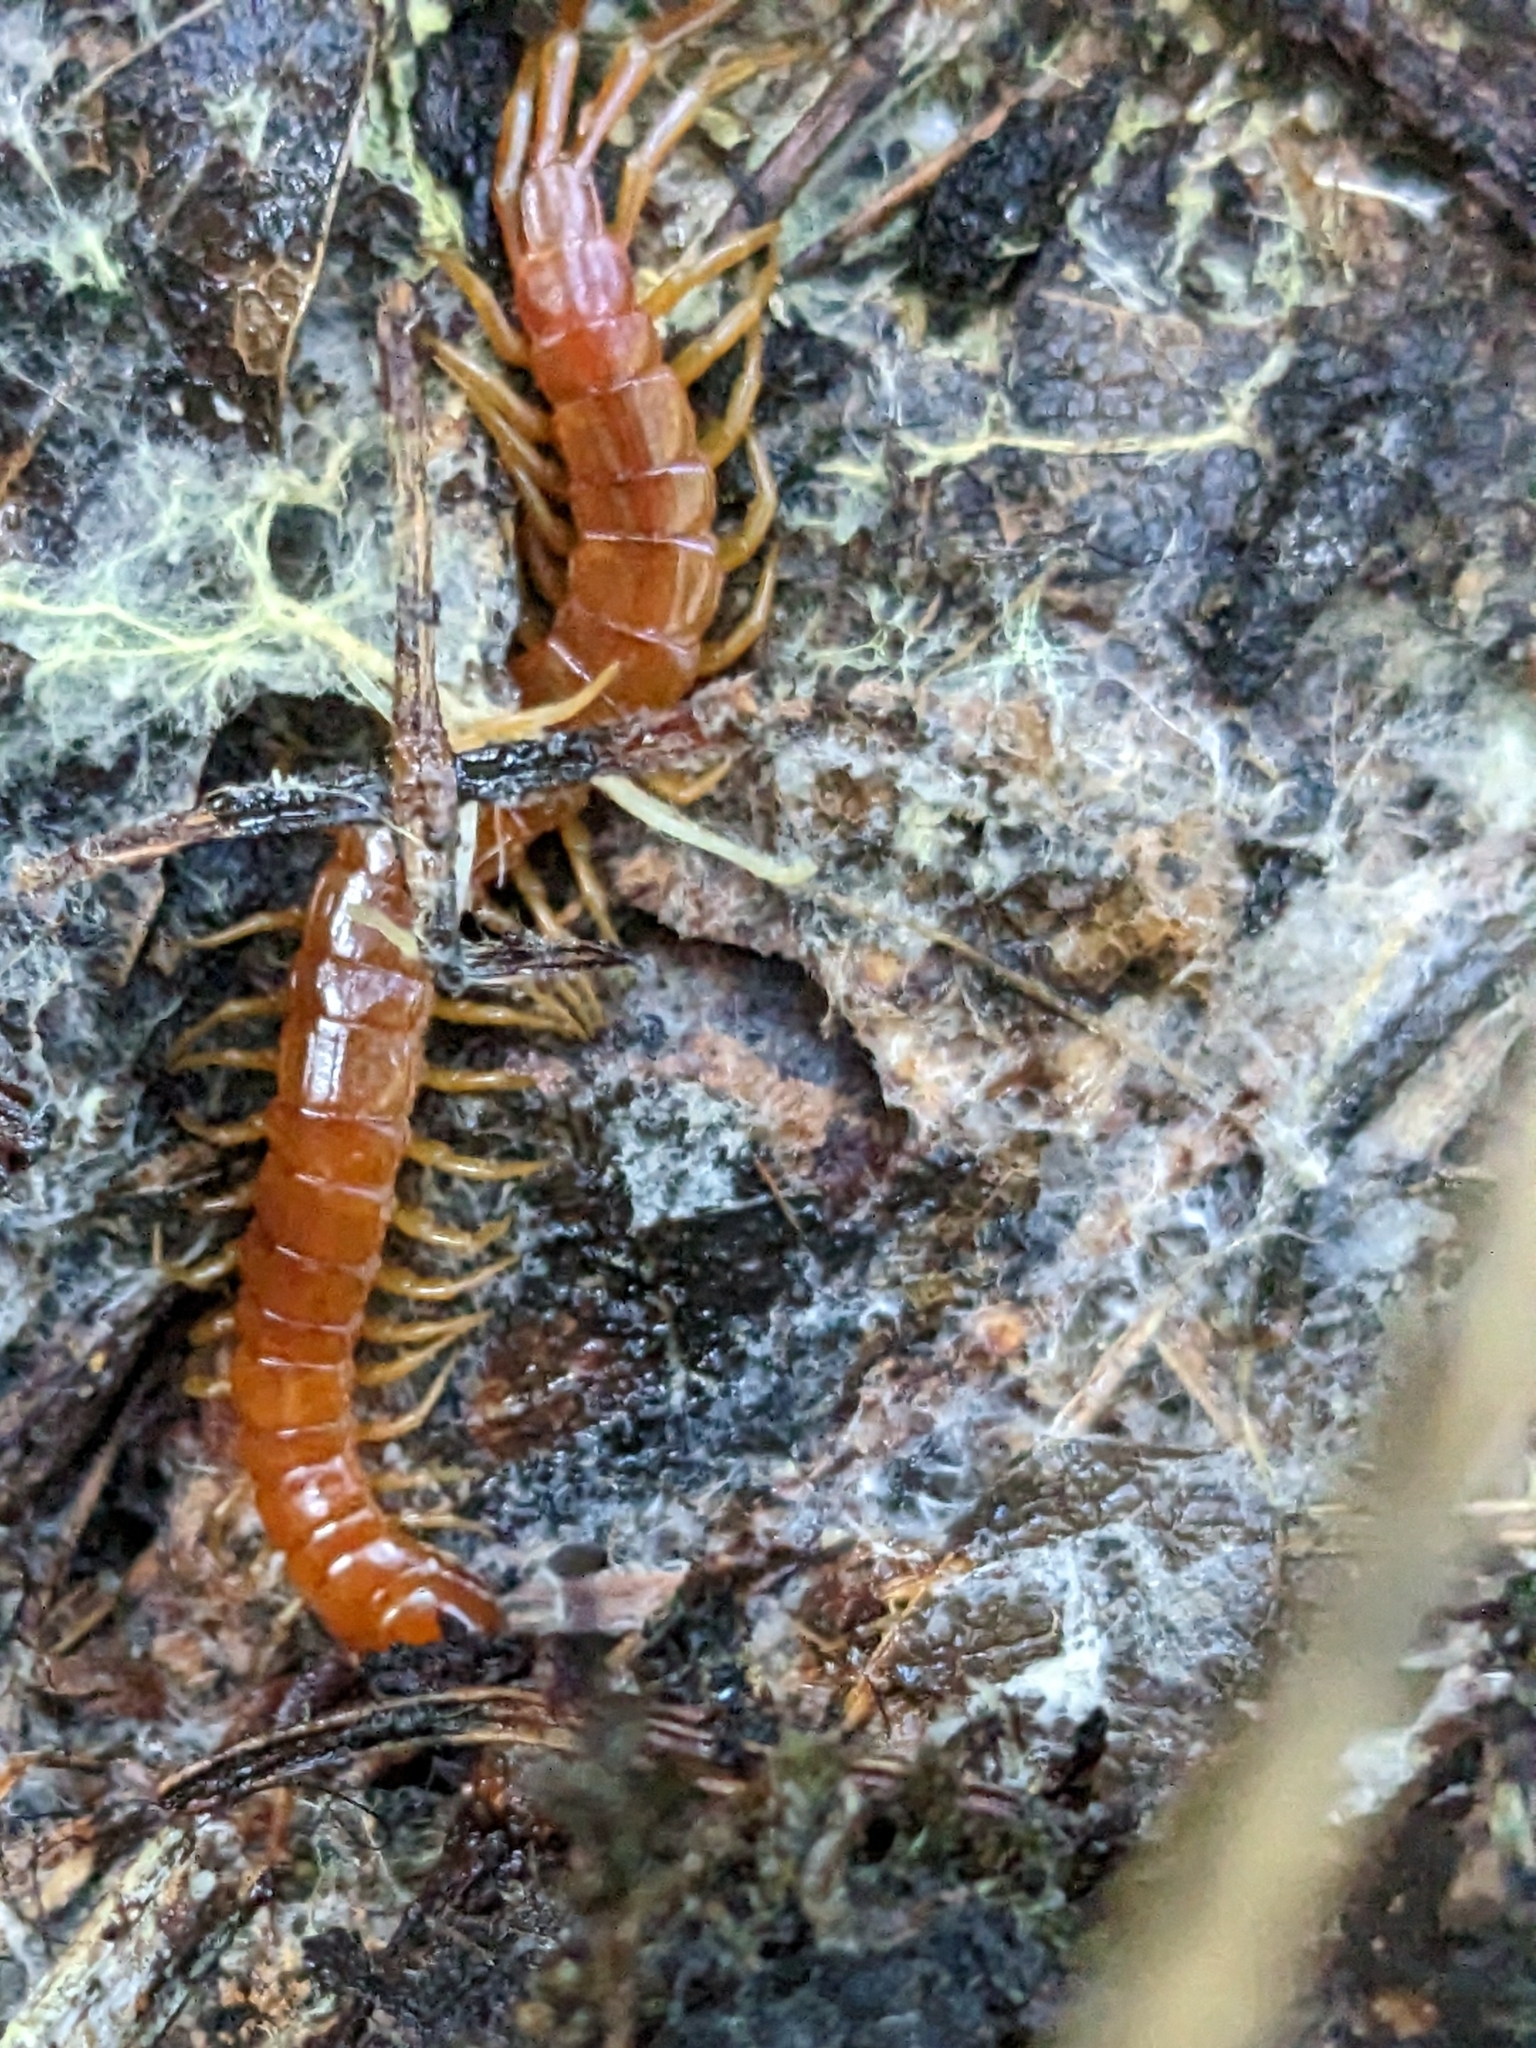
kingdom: Animalia
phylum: Arthropoda
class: Chilopoda
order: Scolopendromorpha
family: Scolopocryptopidae
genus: Scolopocryptops
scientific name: Scolopocryptops spinicaudus
